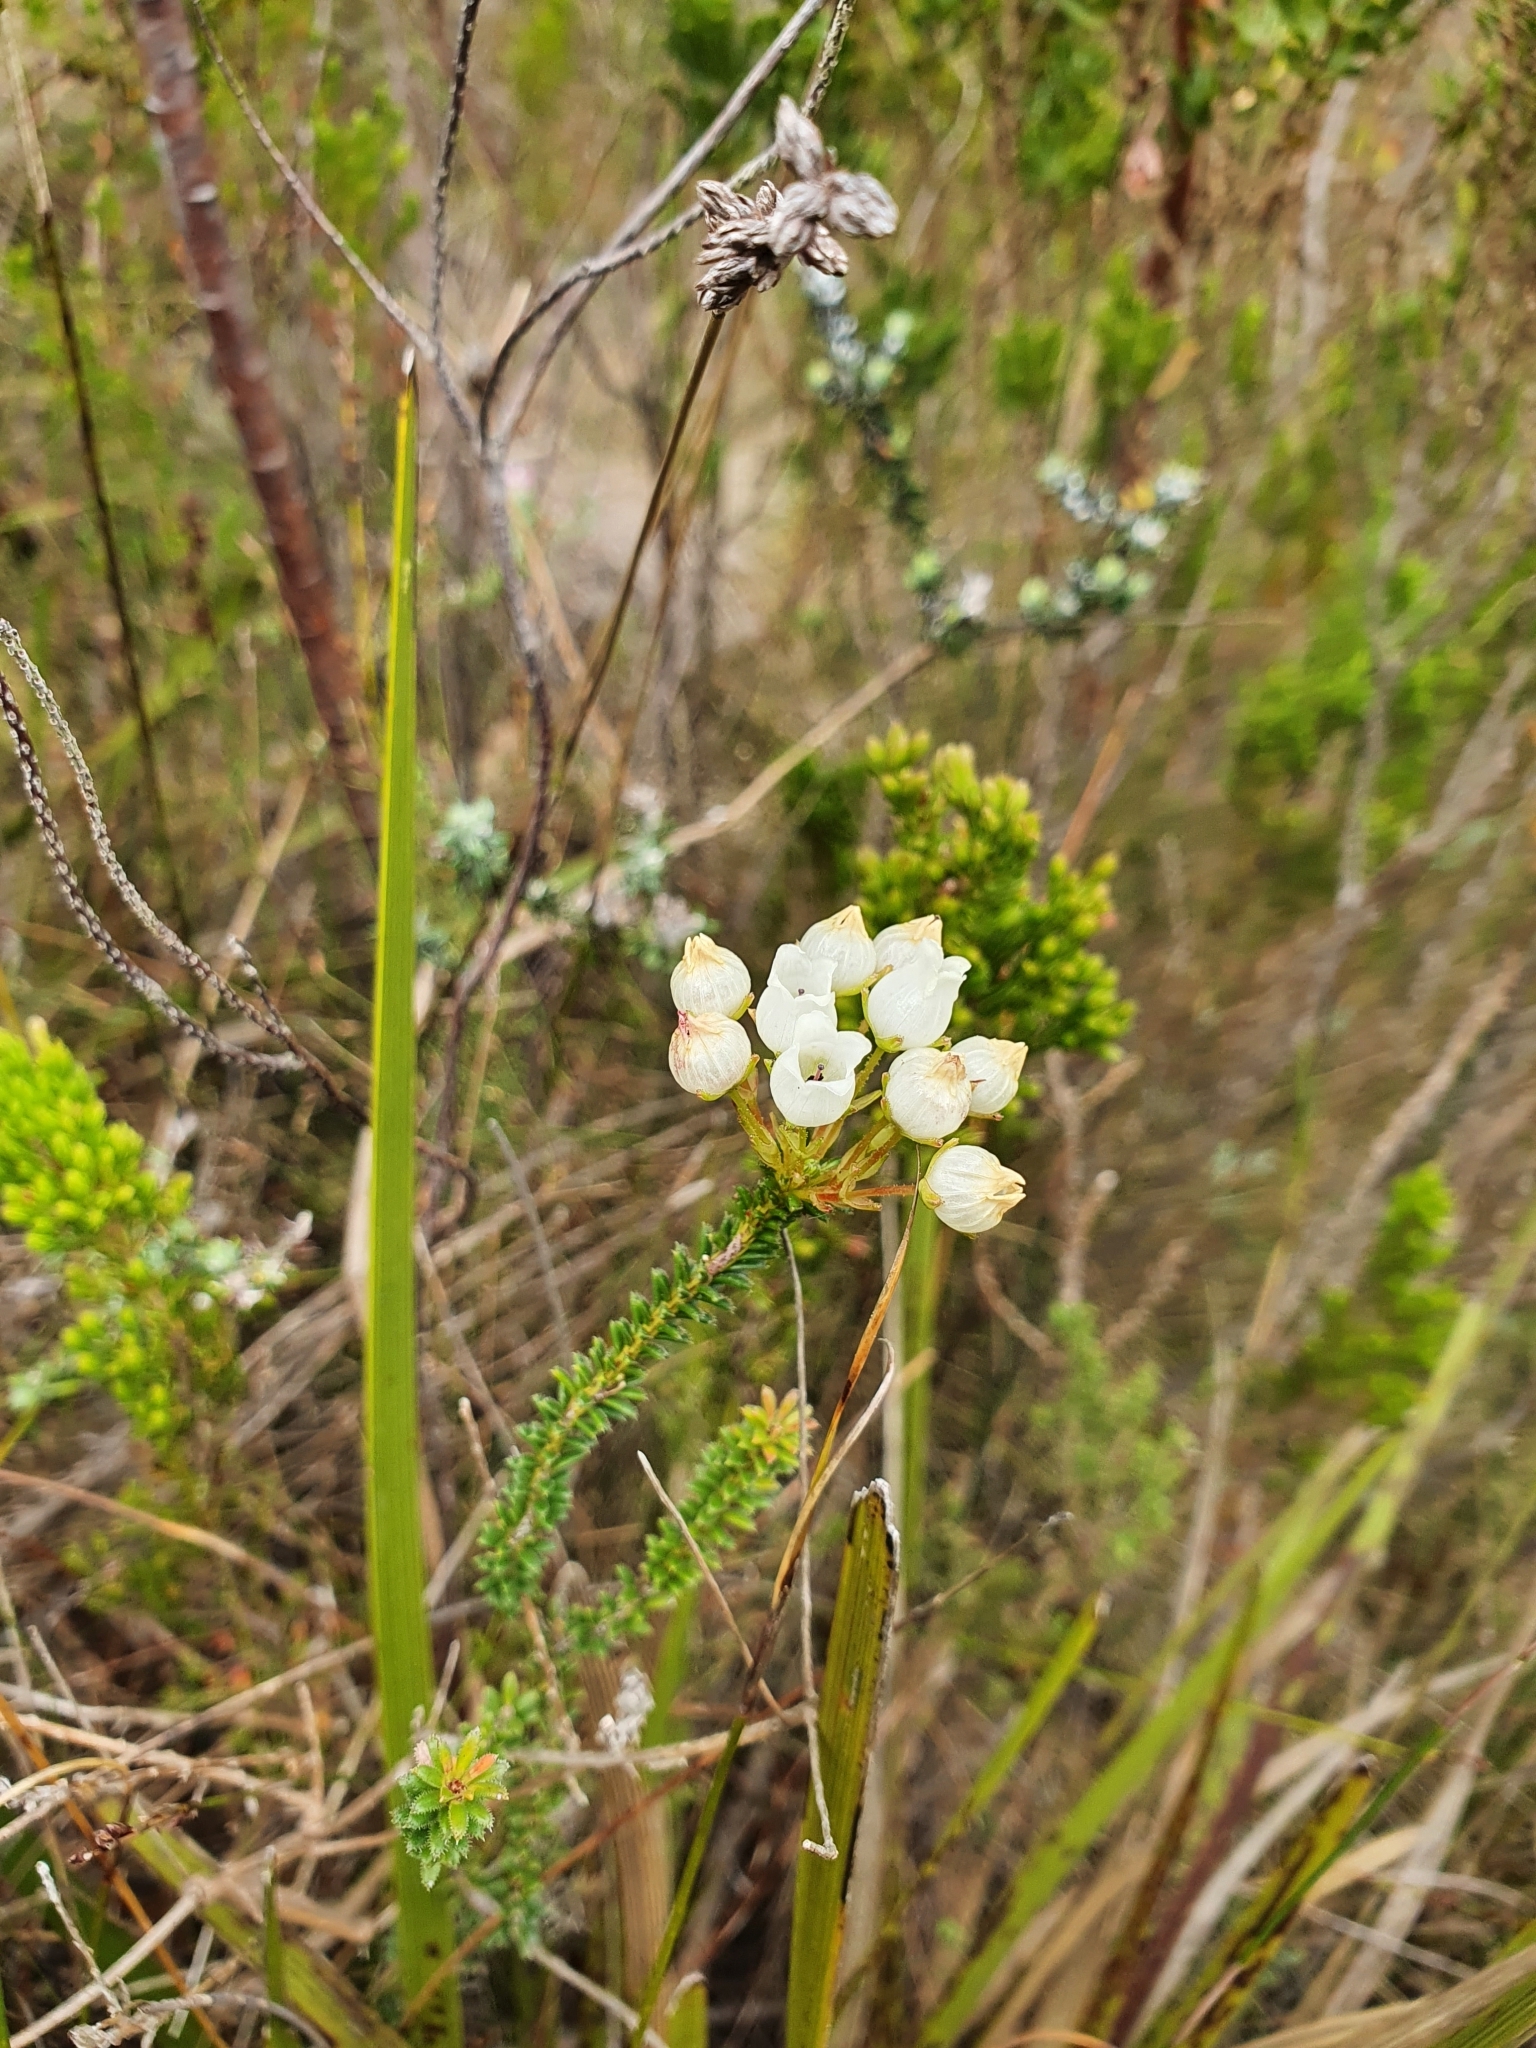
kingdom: Plantae
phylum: Tracheophyta
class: Magnoliopsida
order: Ericales
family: Ericaceae
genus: Erica
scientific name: Erica odorata
